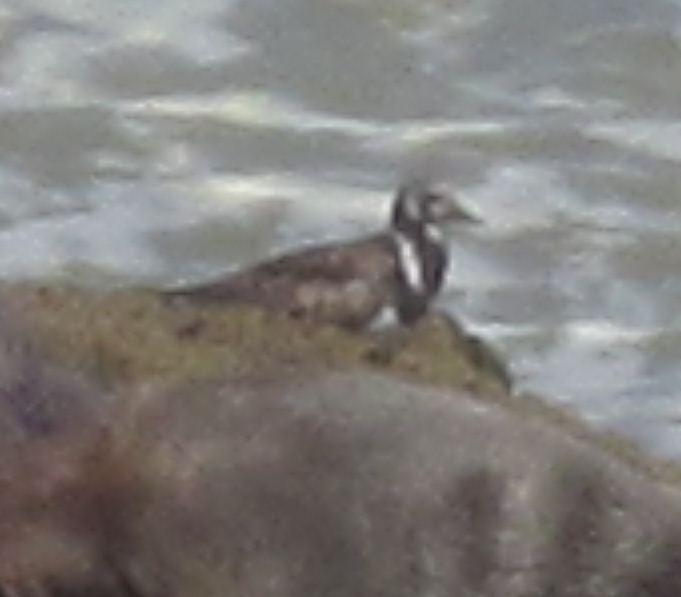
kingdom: Animalia
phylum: Chordata
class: Aves
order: Charadriiformes
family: Scolopacidae
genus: Arenaria
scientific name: Arenaria interpres
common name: Ruddy turnstone
